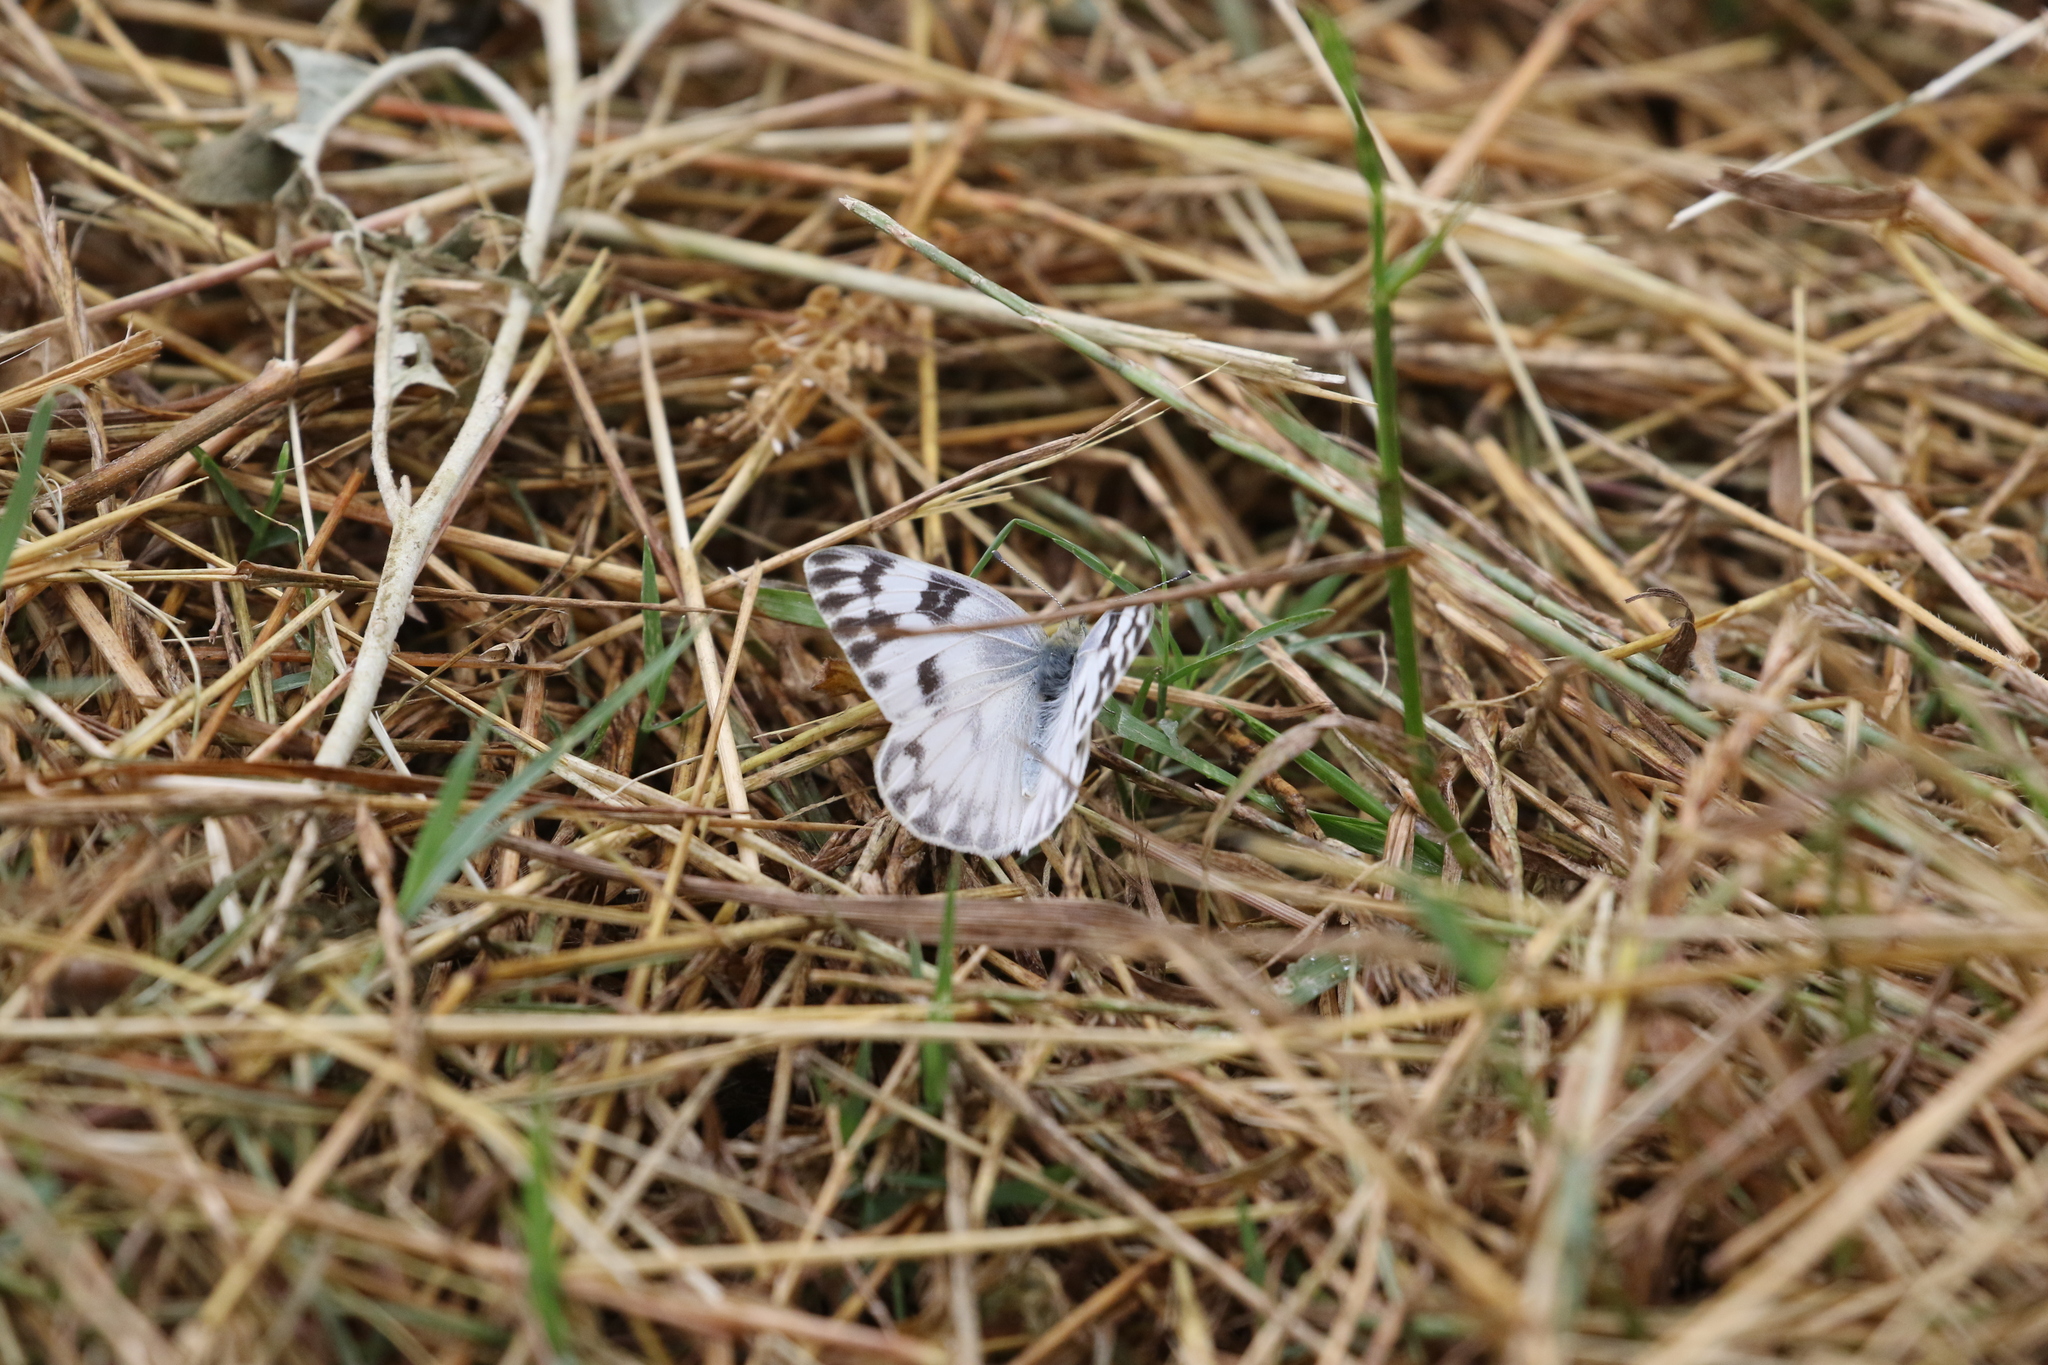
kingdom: Animalia
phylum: Arthropoda
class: Insecta
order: Lepidoptera
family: Pieridae
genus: Pontia
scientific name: Pontia protodice
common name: Checkered white
